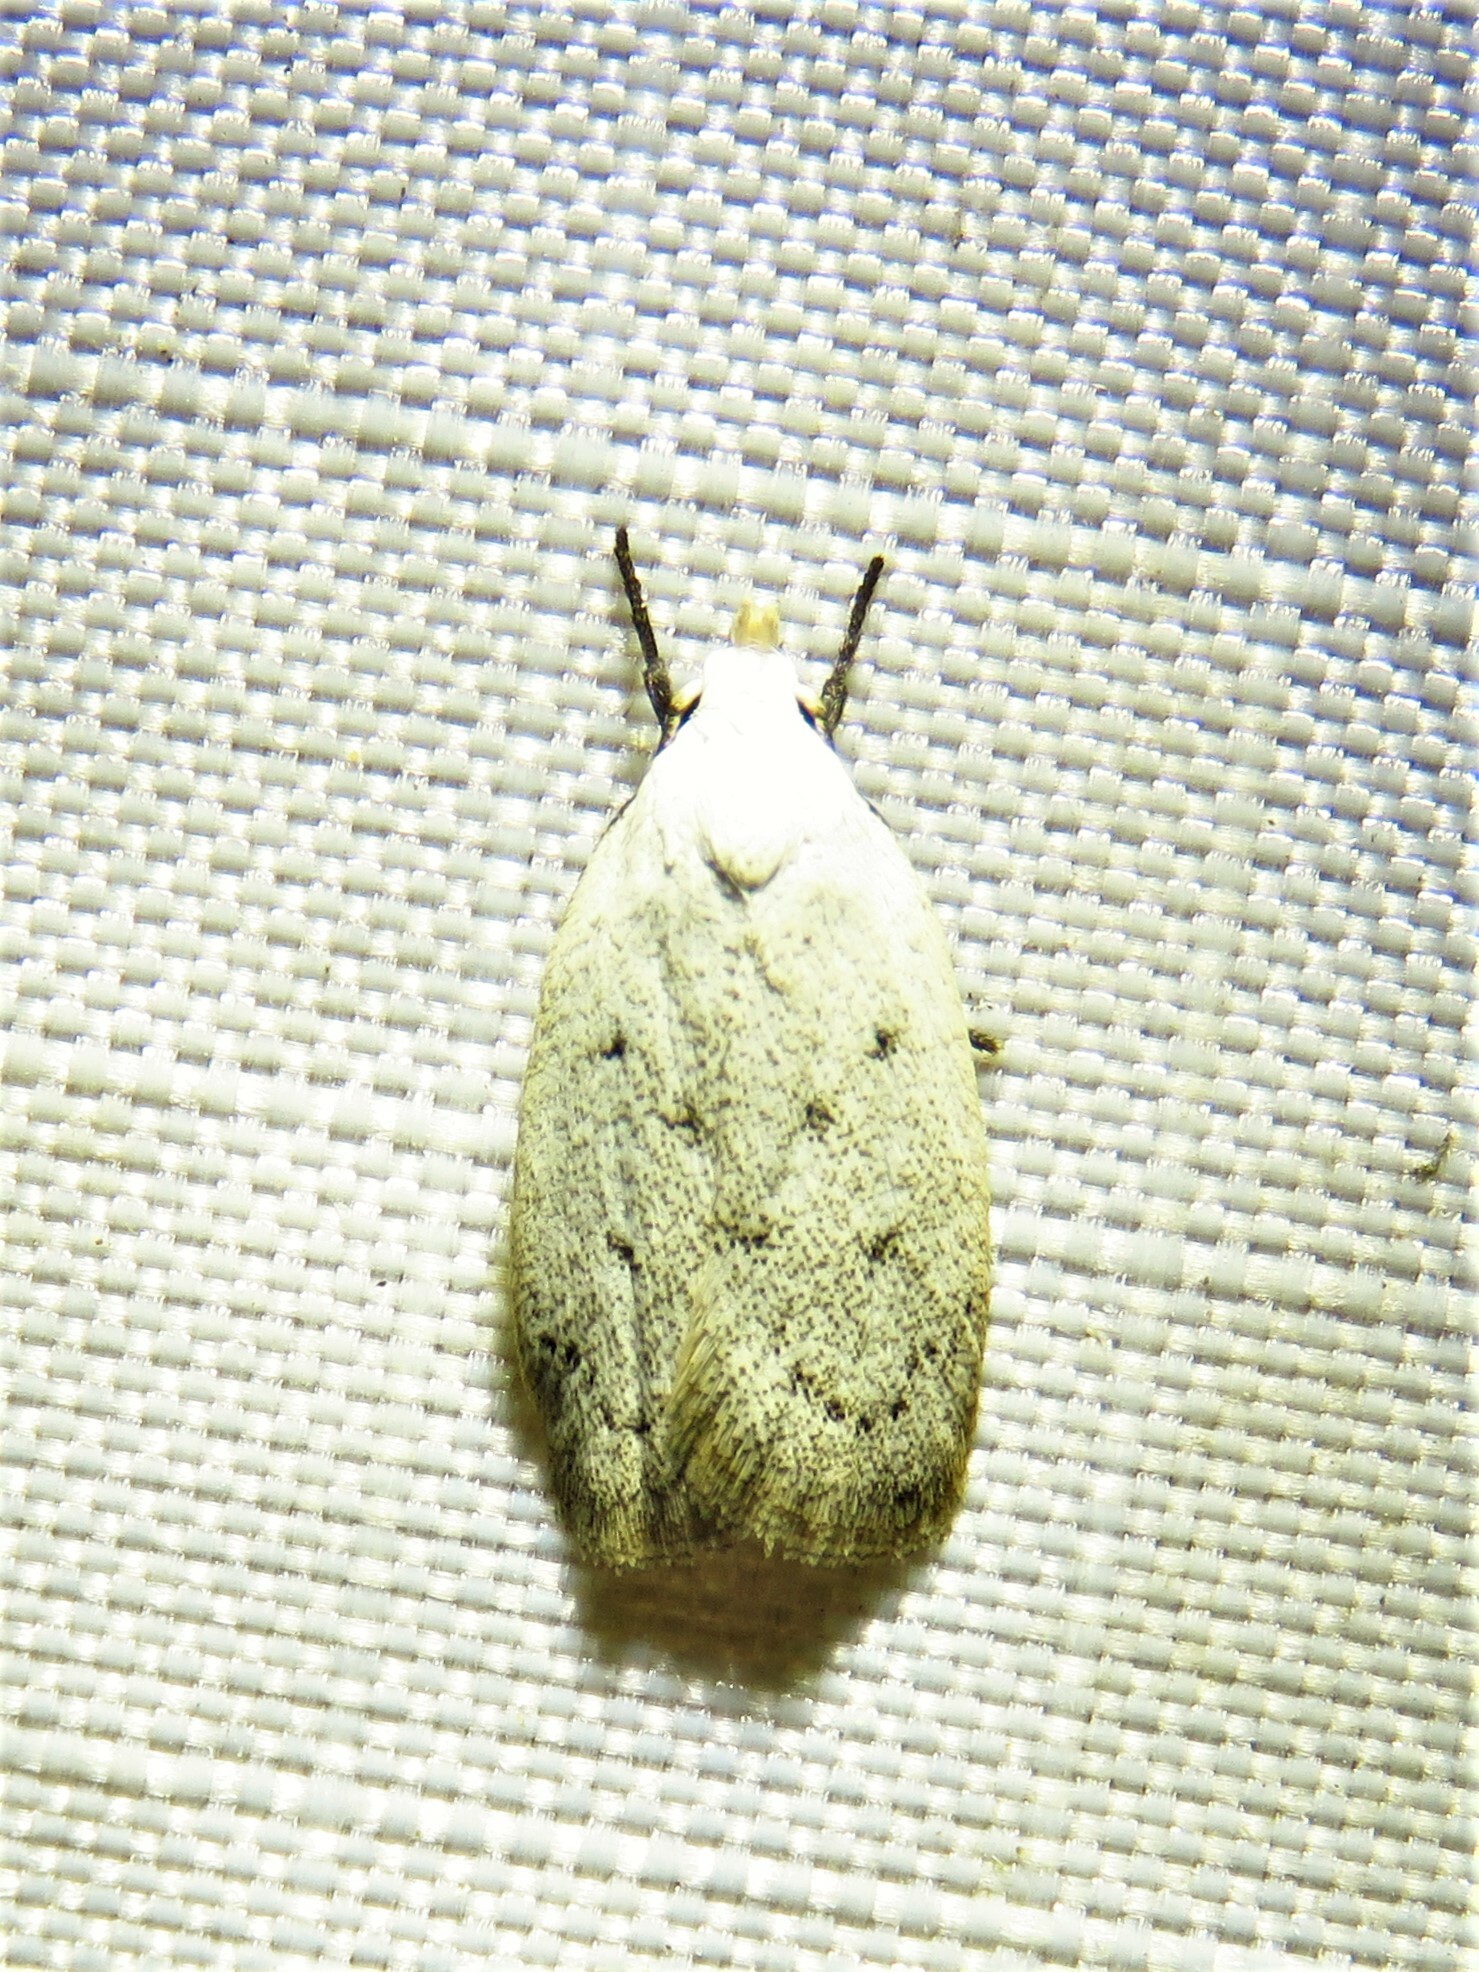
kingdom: Animalia
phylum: Arthropoda
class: Insecta
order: Lepidoptera
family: Oecophoridae
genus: Inga
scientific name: Inga cretacea
